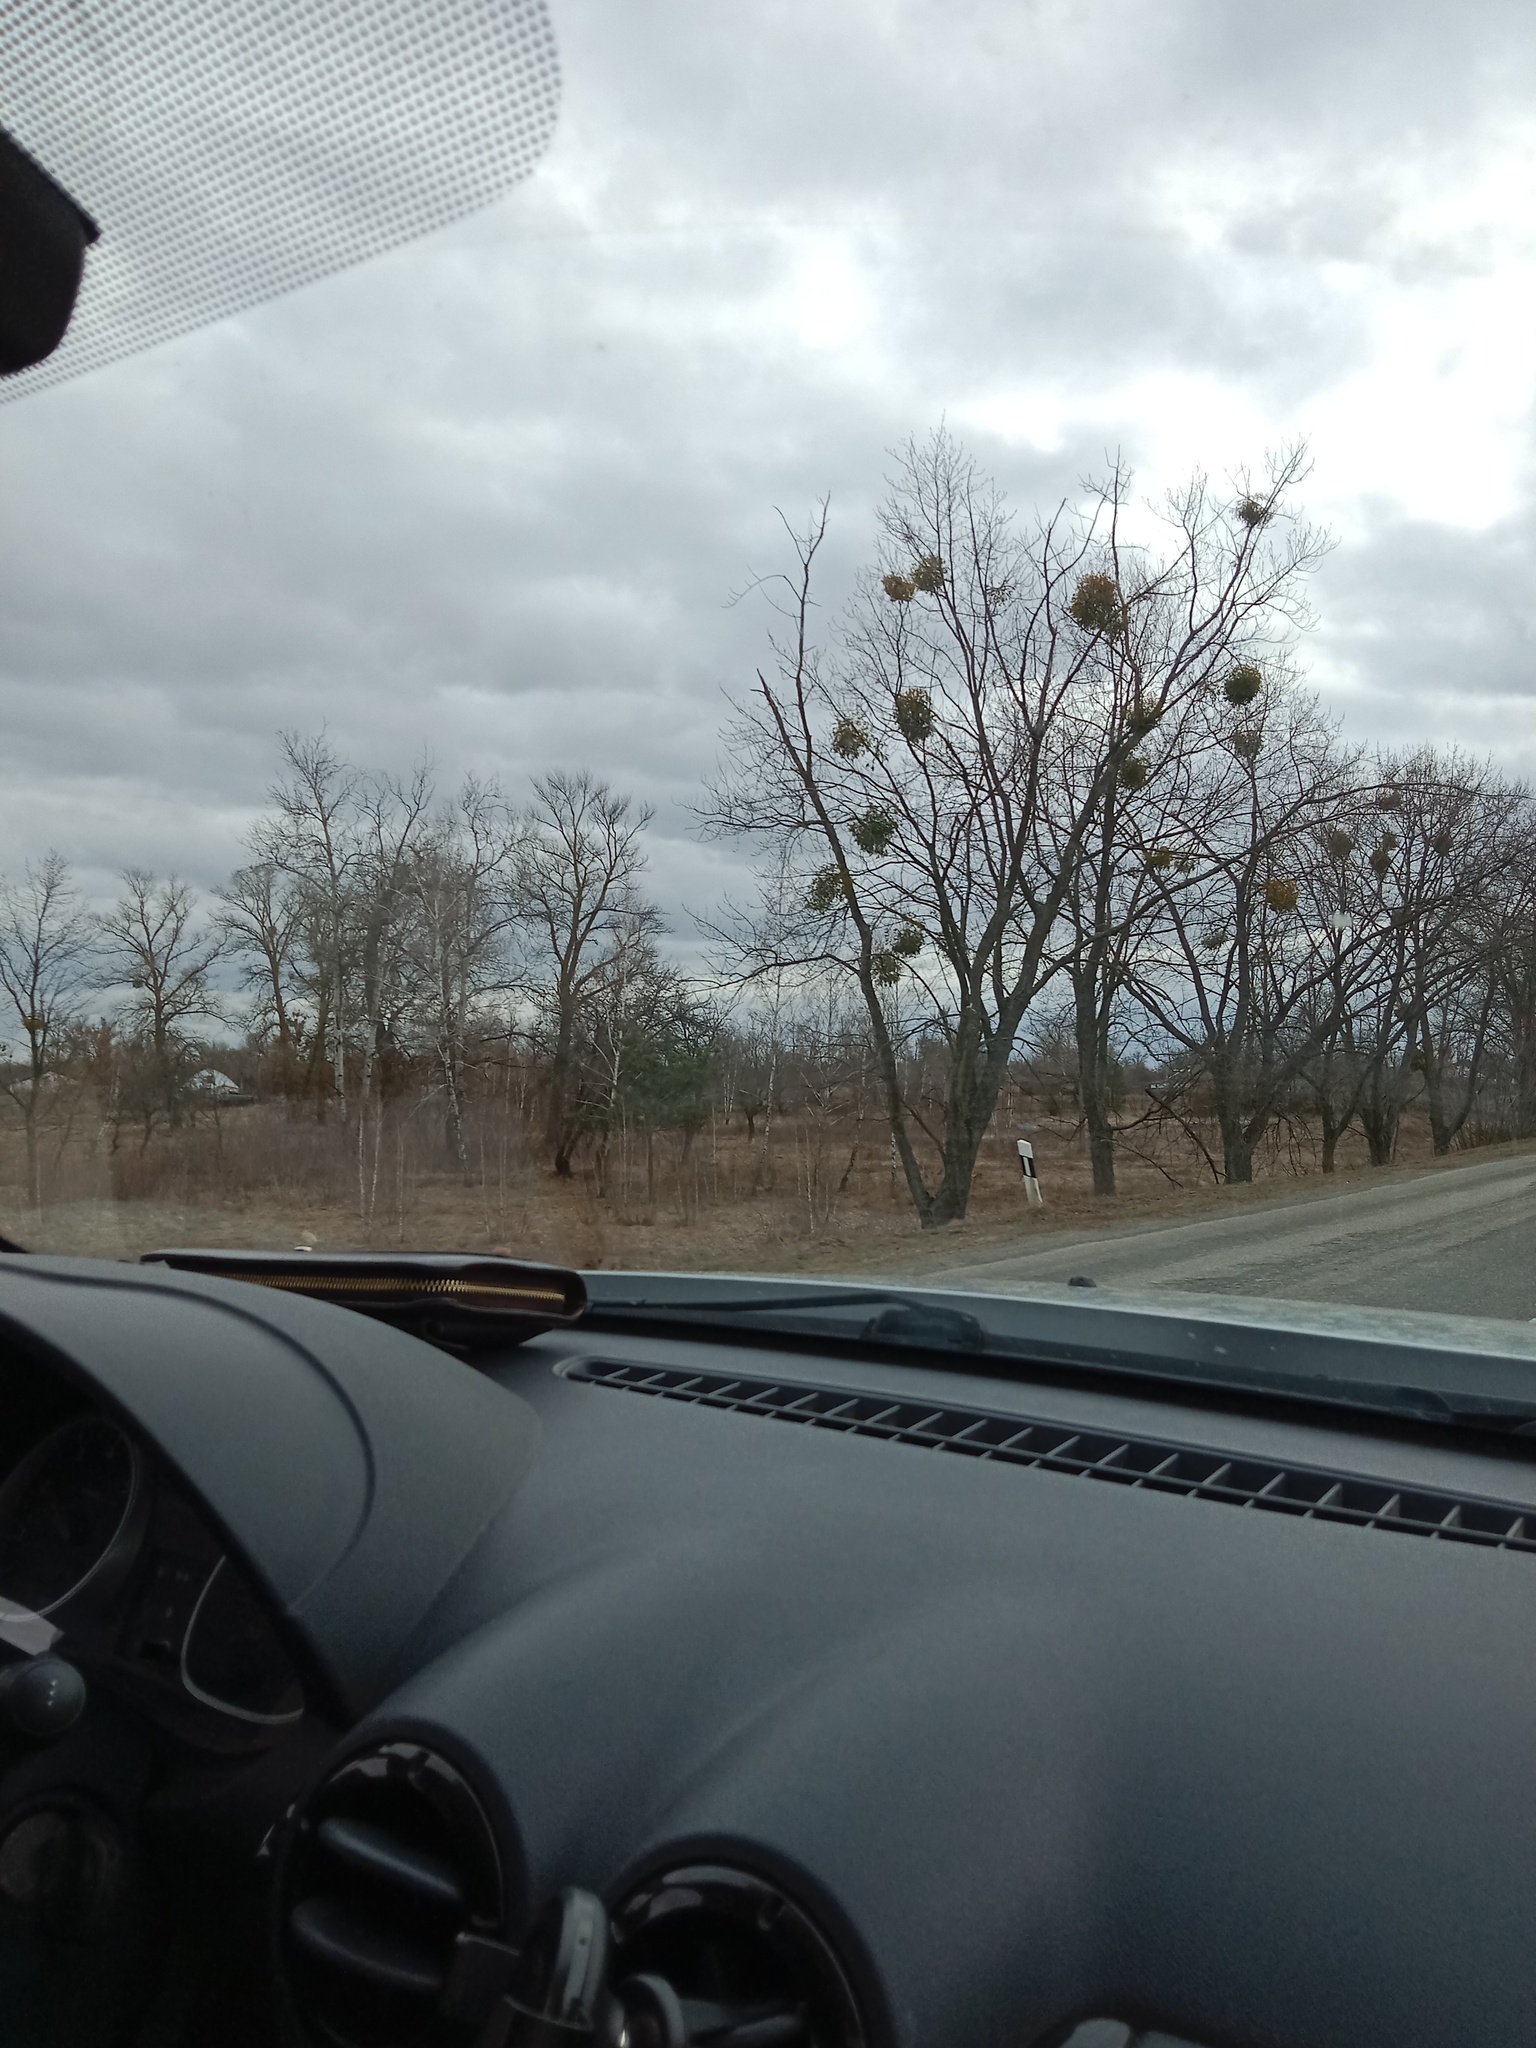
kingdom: Plantae
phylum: Tracheophyta
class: Magnoliopsida
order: Santalales
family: Viscaceae
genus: Viscum
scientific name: Viscum album
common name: Mistletoe
